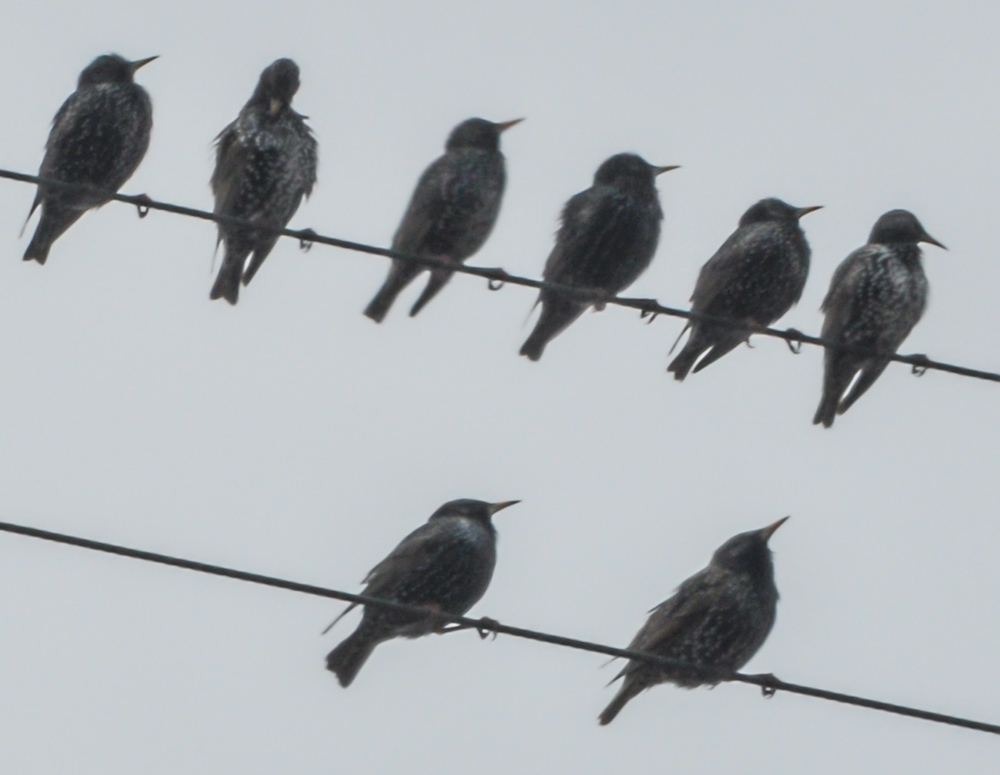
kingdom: Animalia
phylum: Chordata
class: Aves
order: Passeriformes
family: Sturnidae
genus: Sturnus
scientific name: Sturnus vulgaris
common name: Common starling
